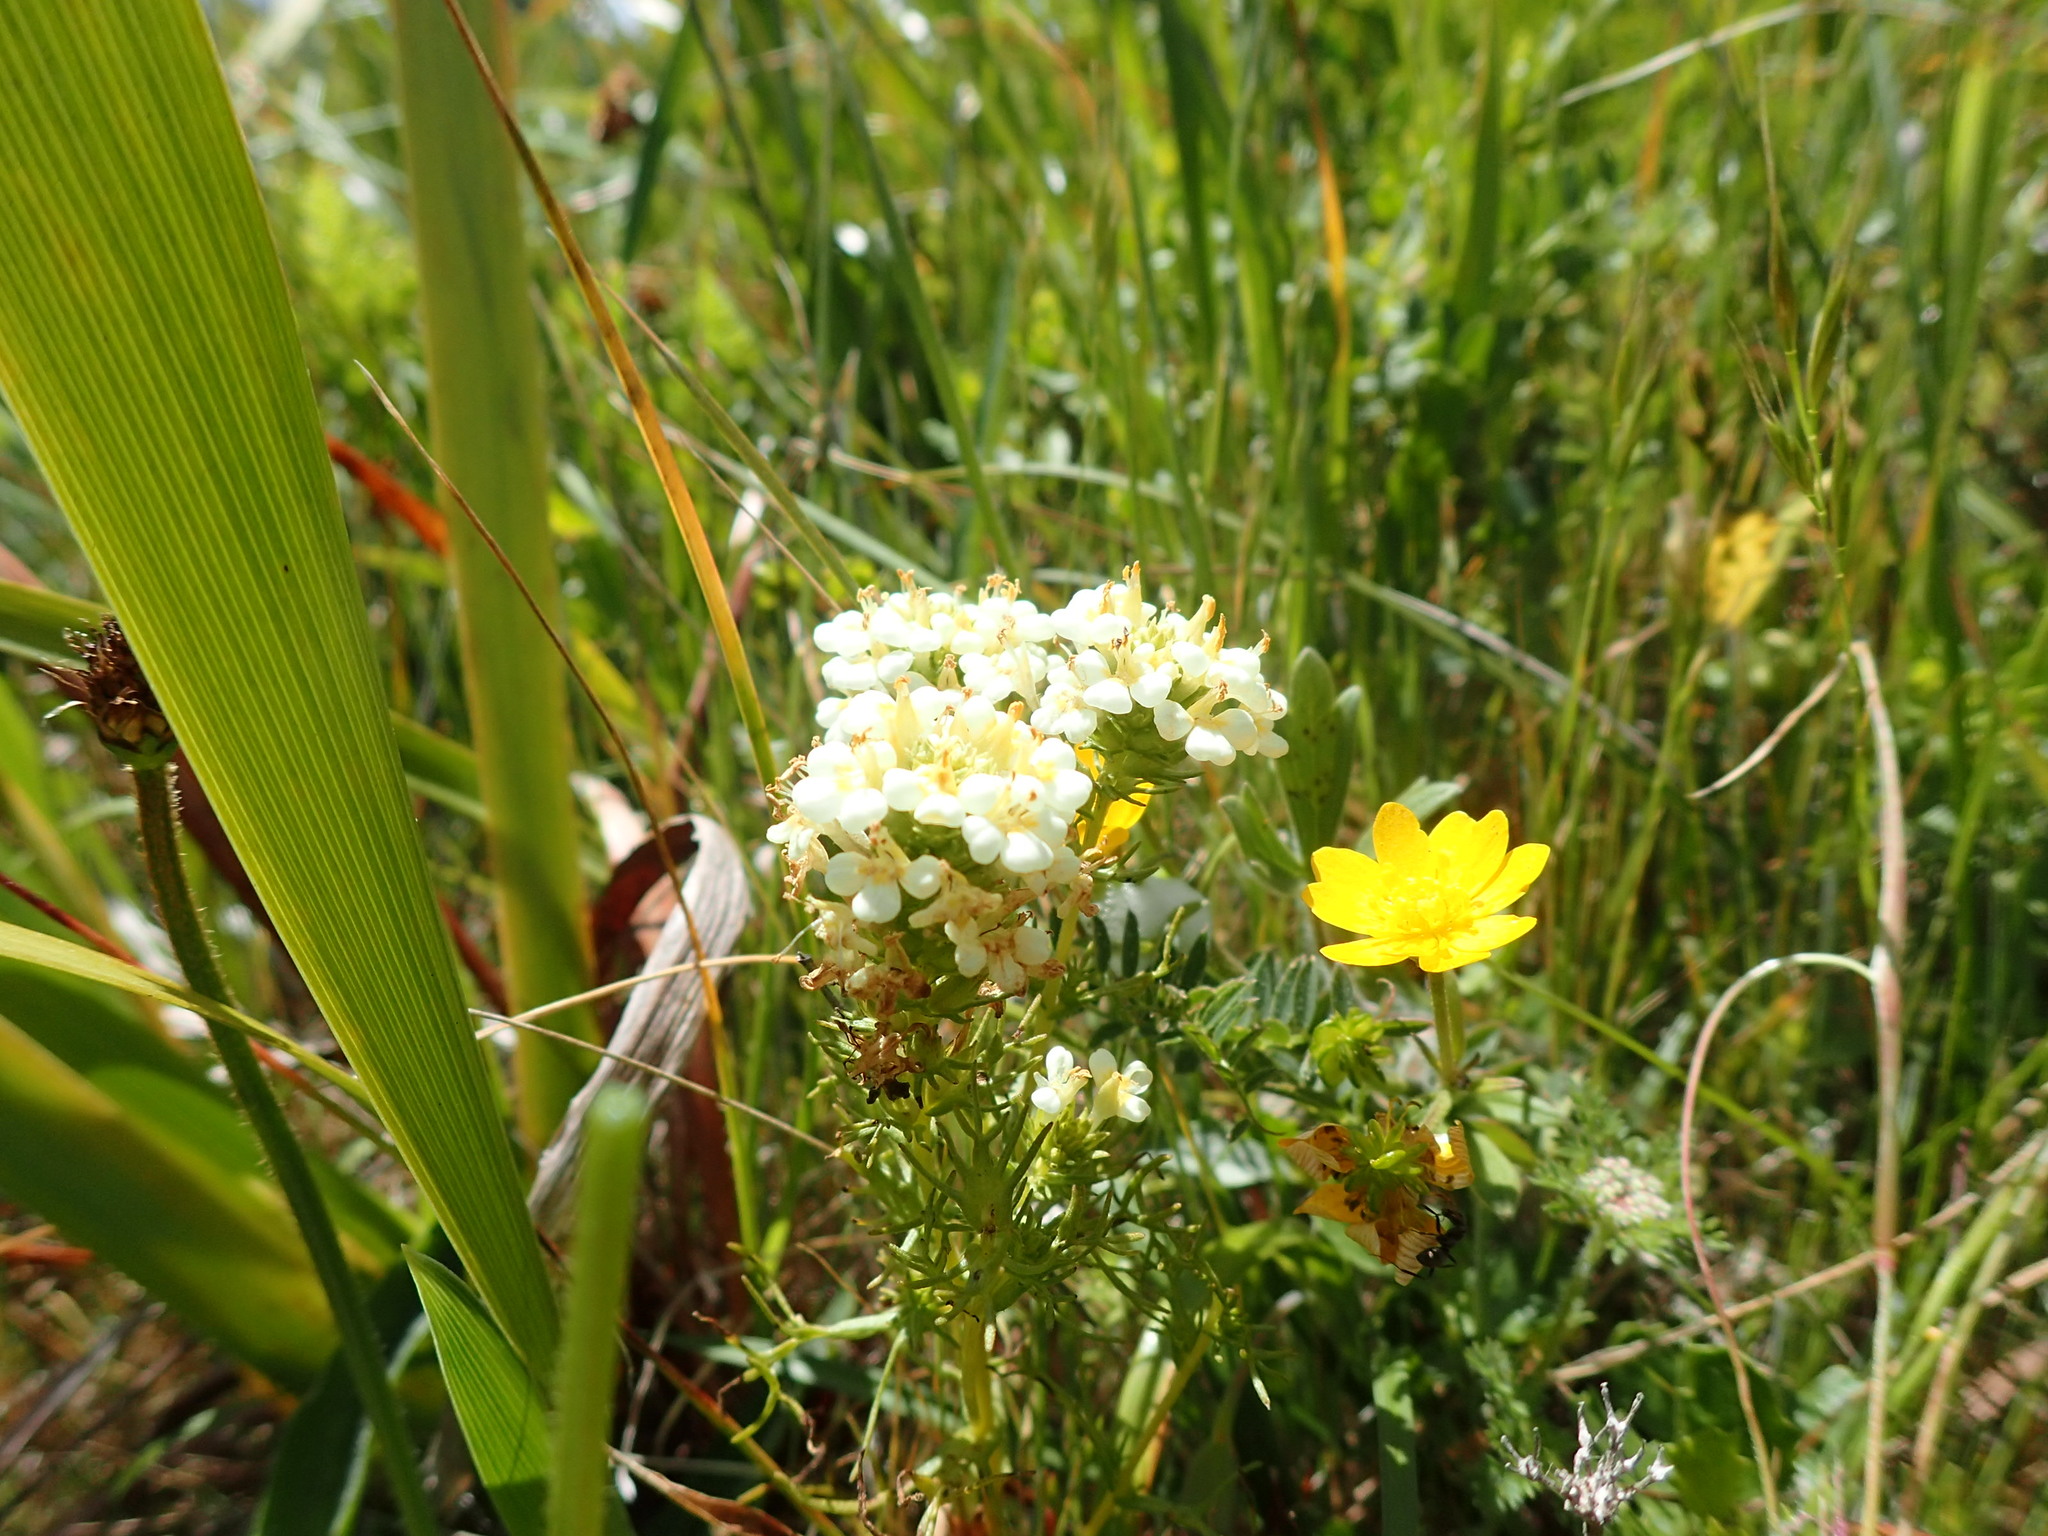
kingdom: Plantae
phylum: Tracheophyta
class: Magnoliopsida
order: Lamiales
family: Orobanchaceae
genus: Triphysaria
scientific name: Triphysaria floribunda
